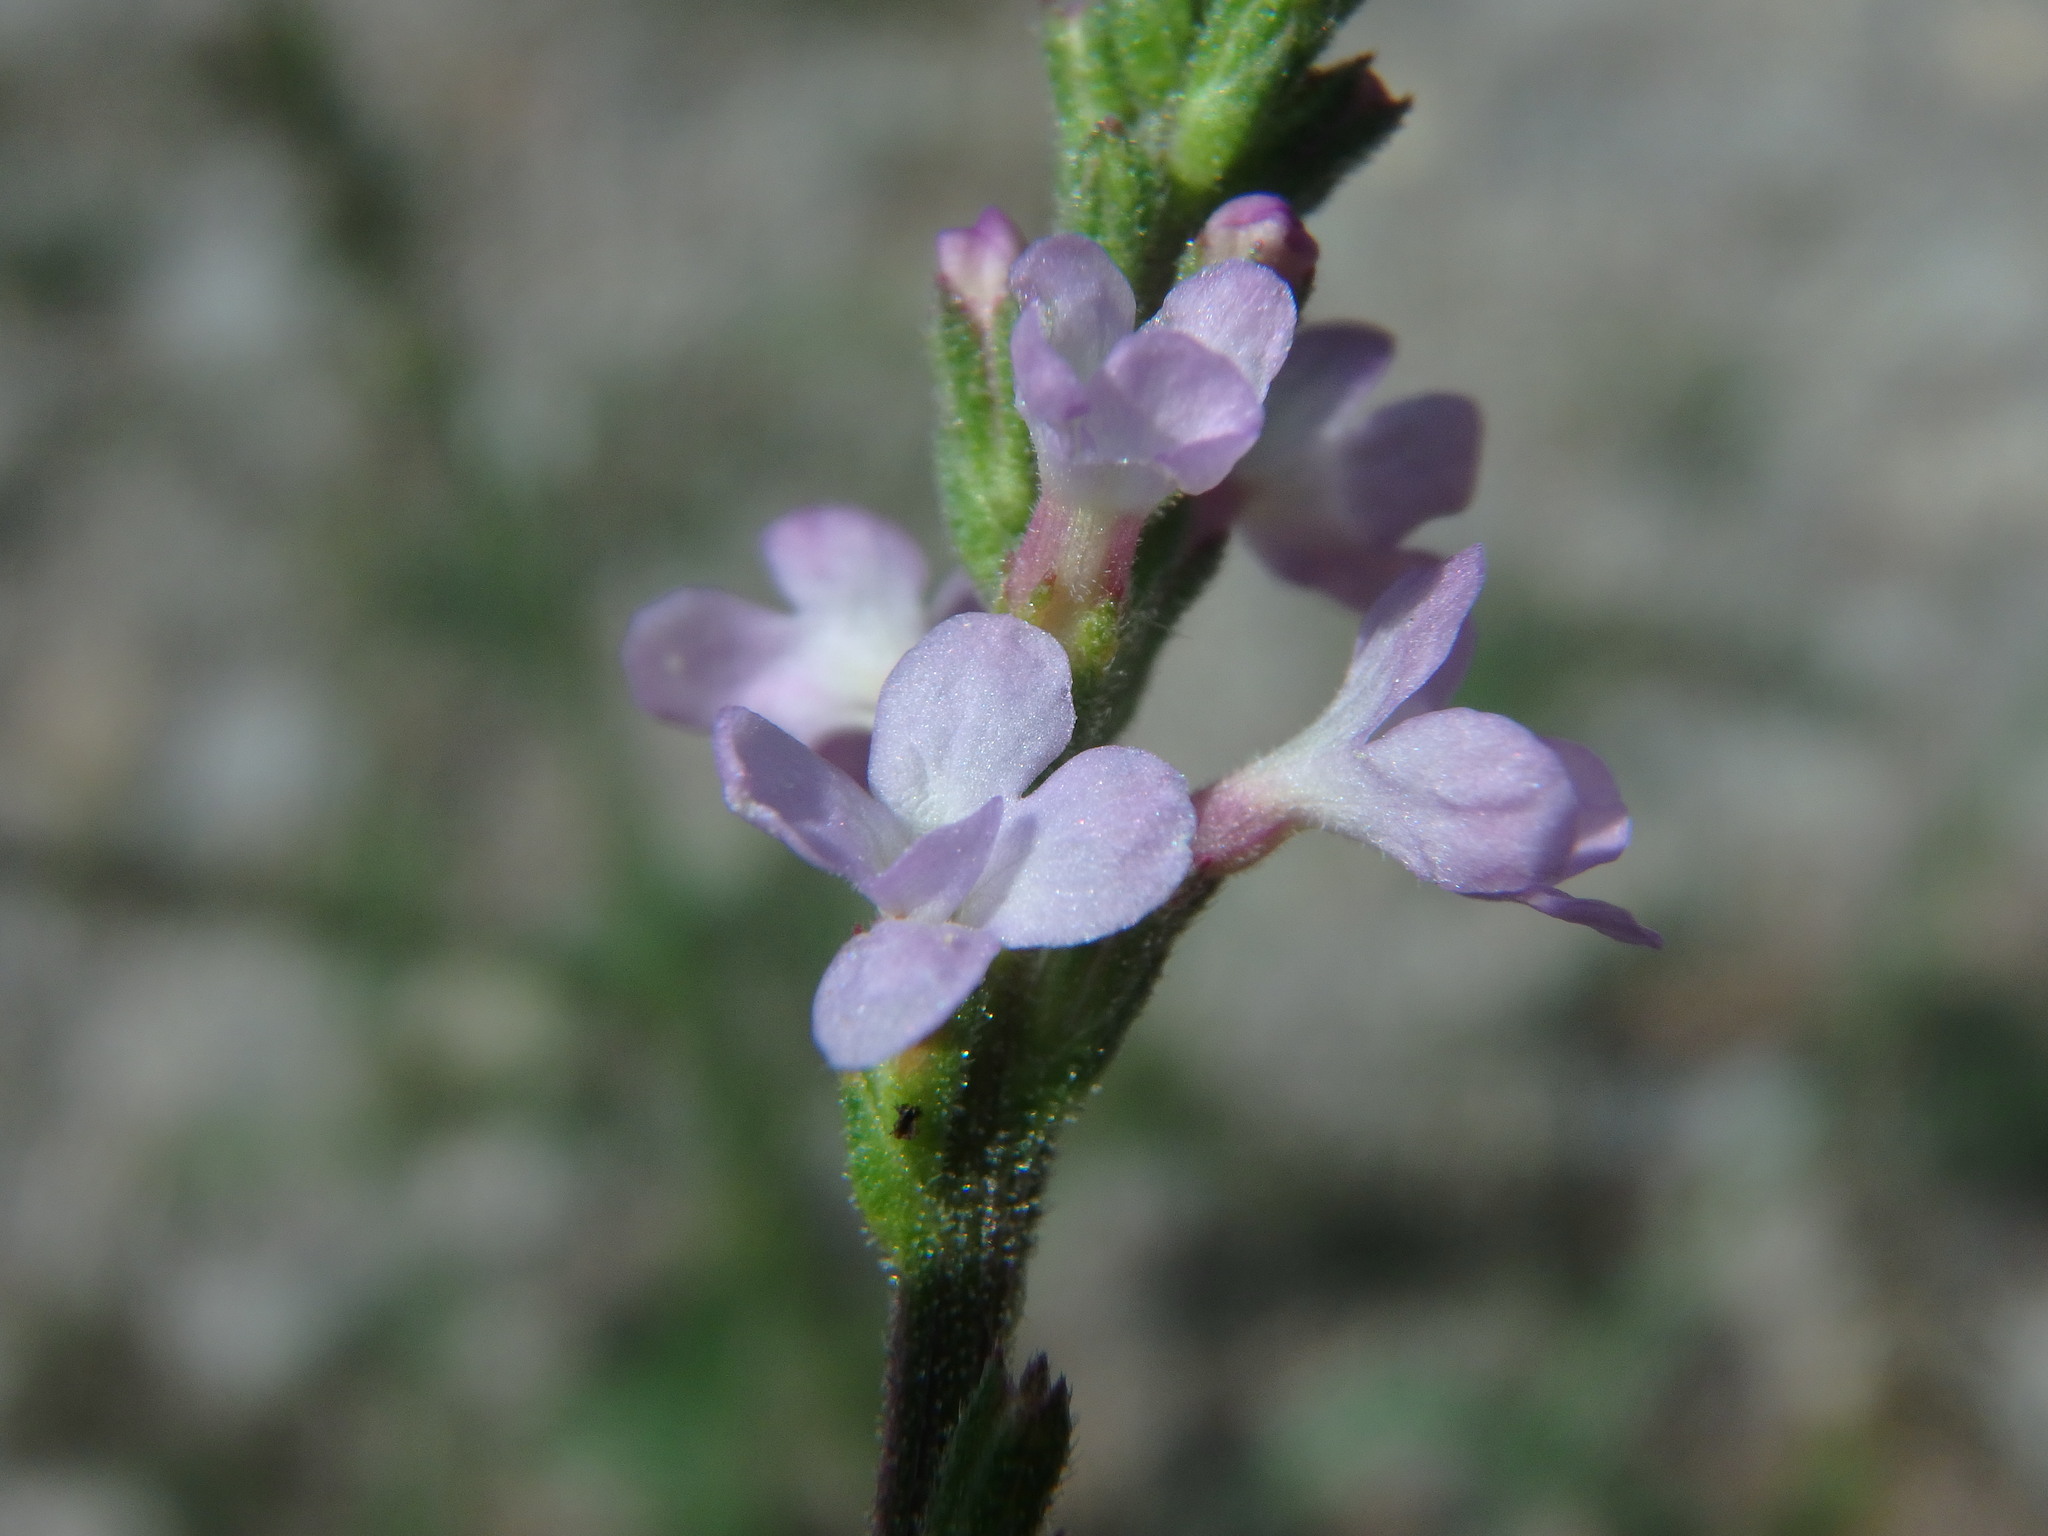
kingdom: Plantae
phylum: Tracheophyta
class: Magnoliopsida
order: Lamiales
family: Verbenaceae
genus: Verbena
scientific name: Verbena officinalis
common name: Vervain
